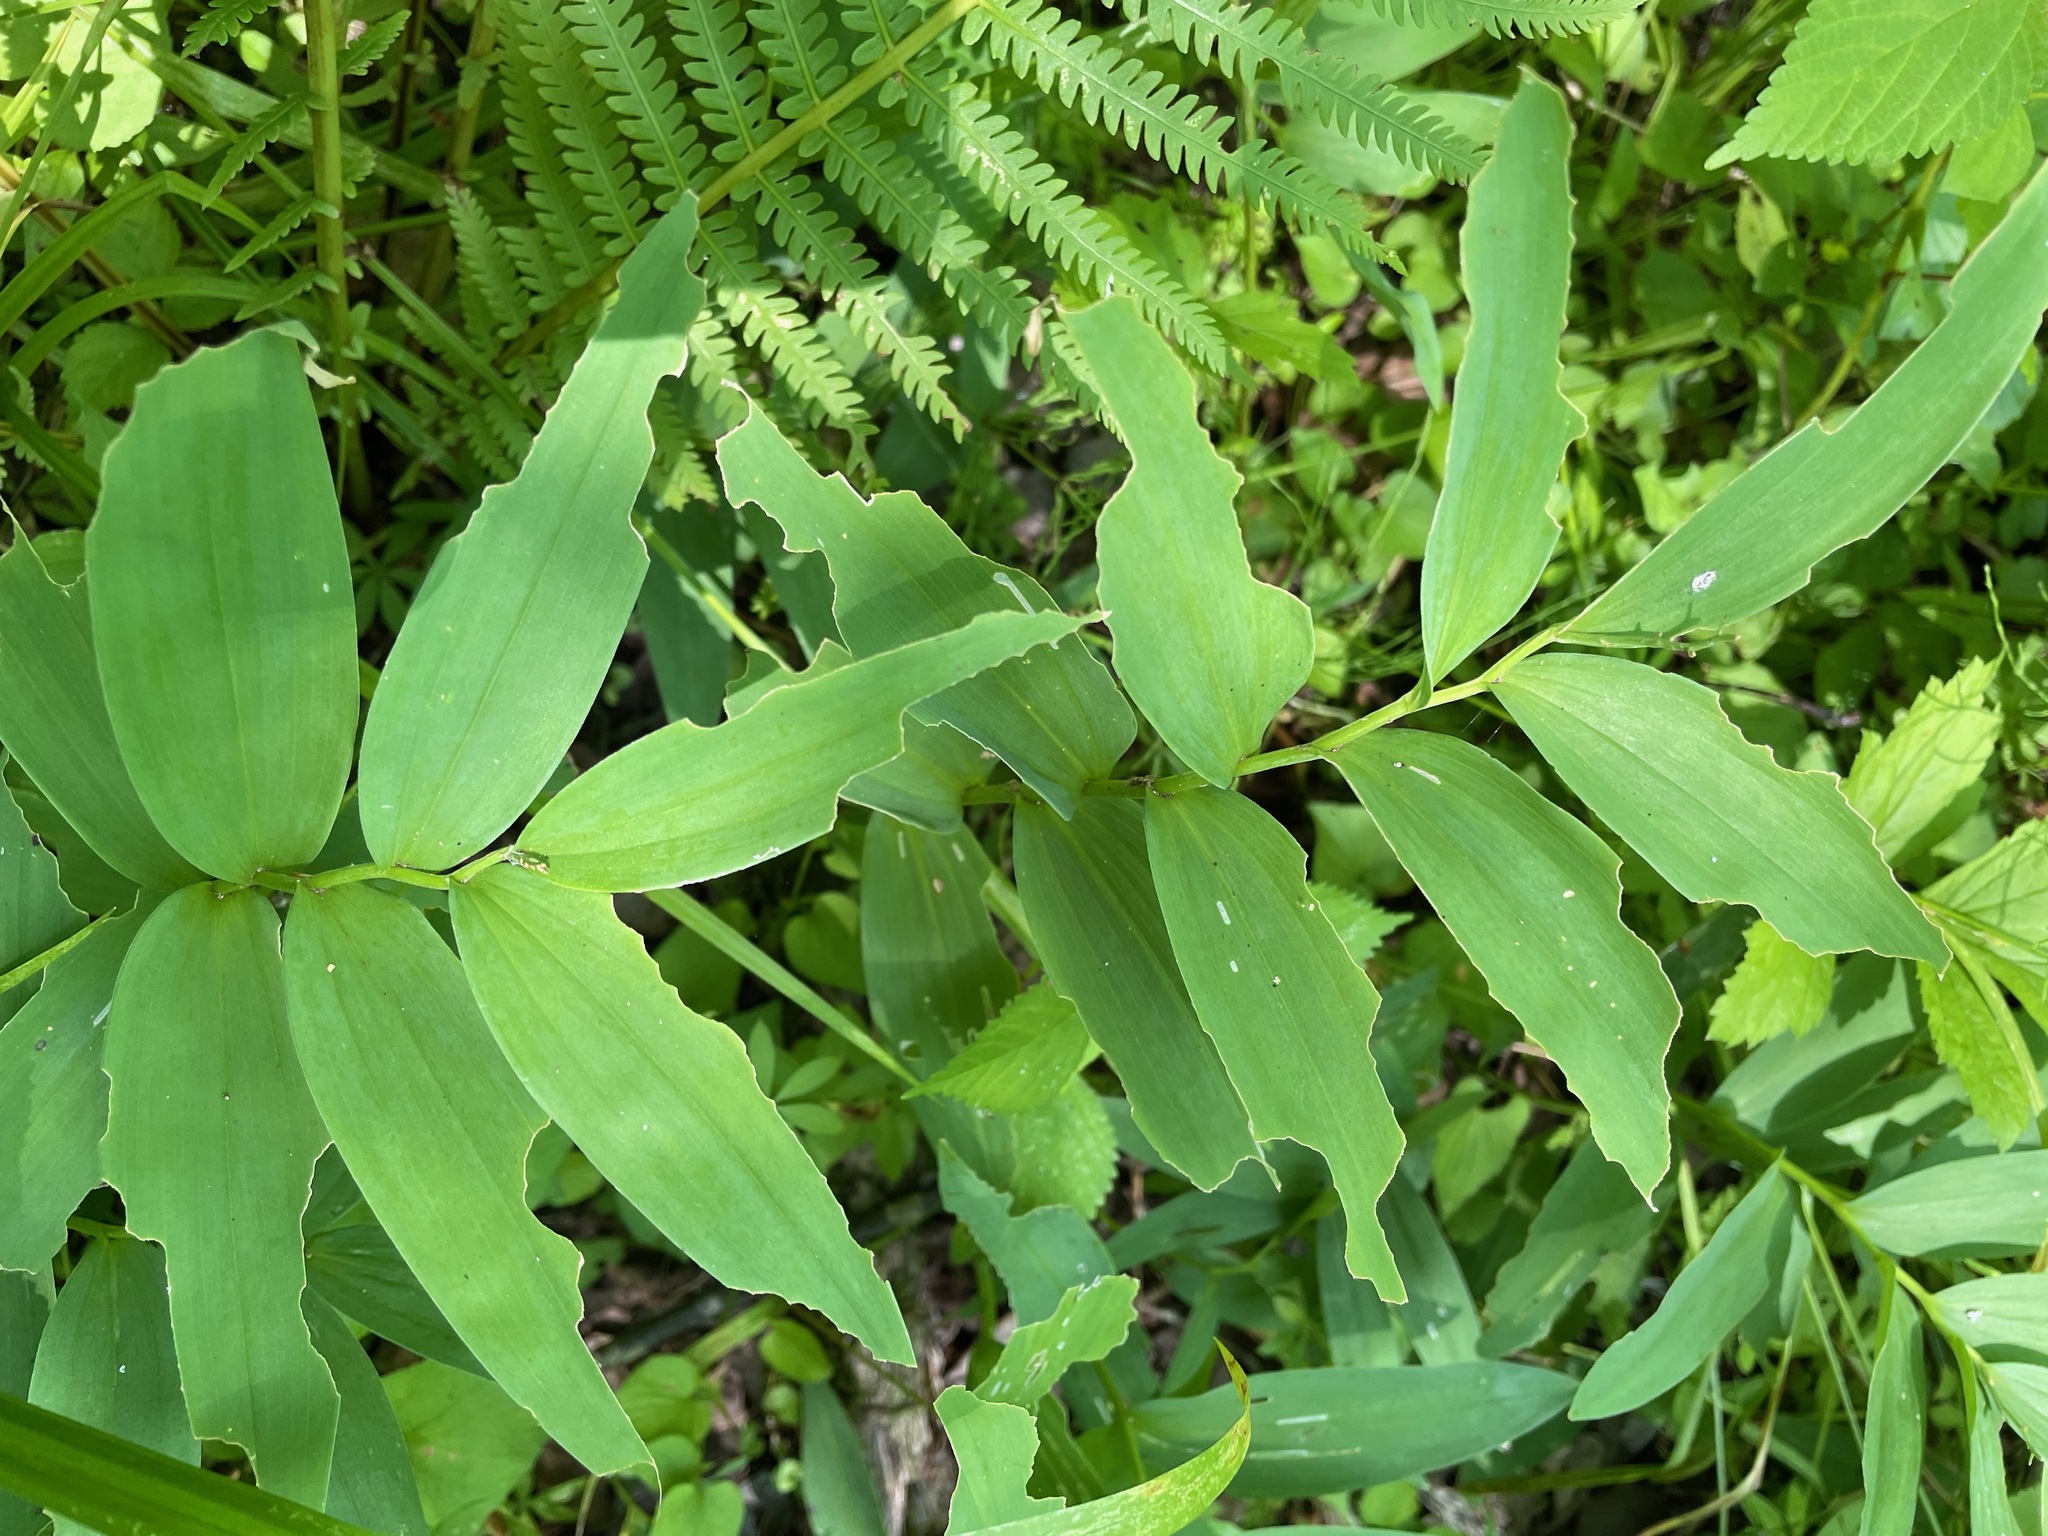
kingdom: Plantae
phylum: Tracheophyta
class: Liliopsida
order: Asparagales
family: Asparagaceae
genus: Maianthemum
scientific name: Maianthemum stellatum
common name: Little false solomon's seal
